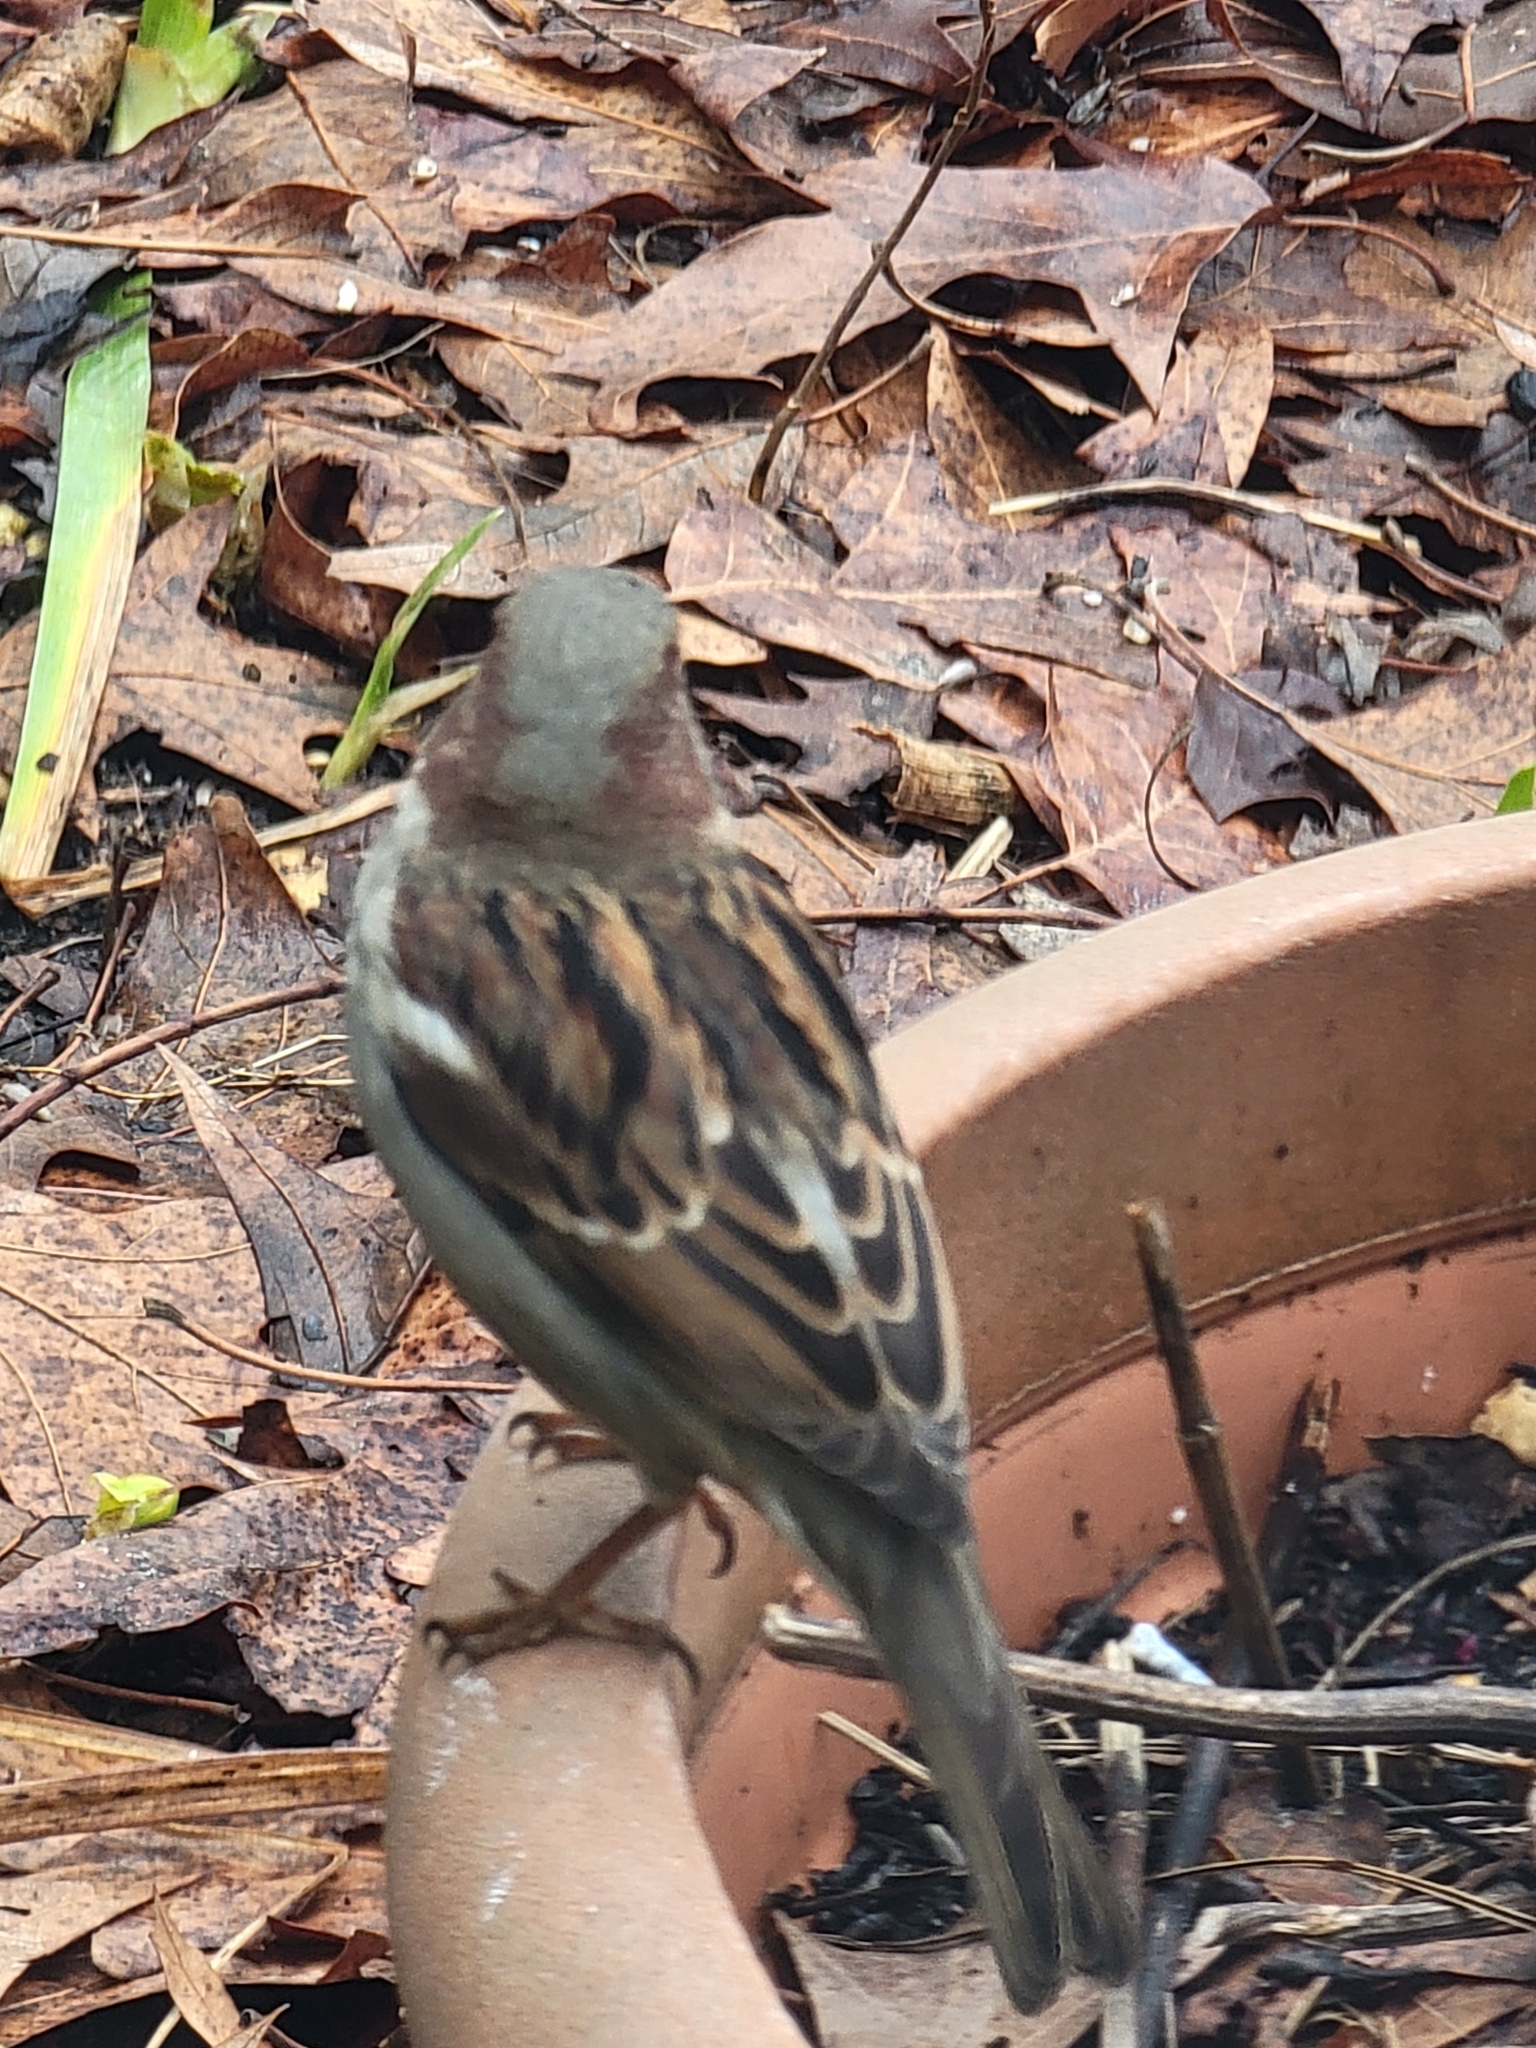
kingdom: Animalia
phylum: Chordata
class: Aves
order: Passeriformes
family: Passeridae
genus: Passer
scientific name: Passer domesticus
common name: House sparrow
